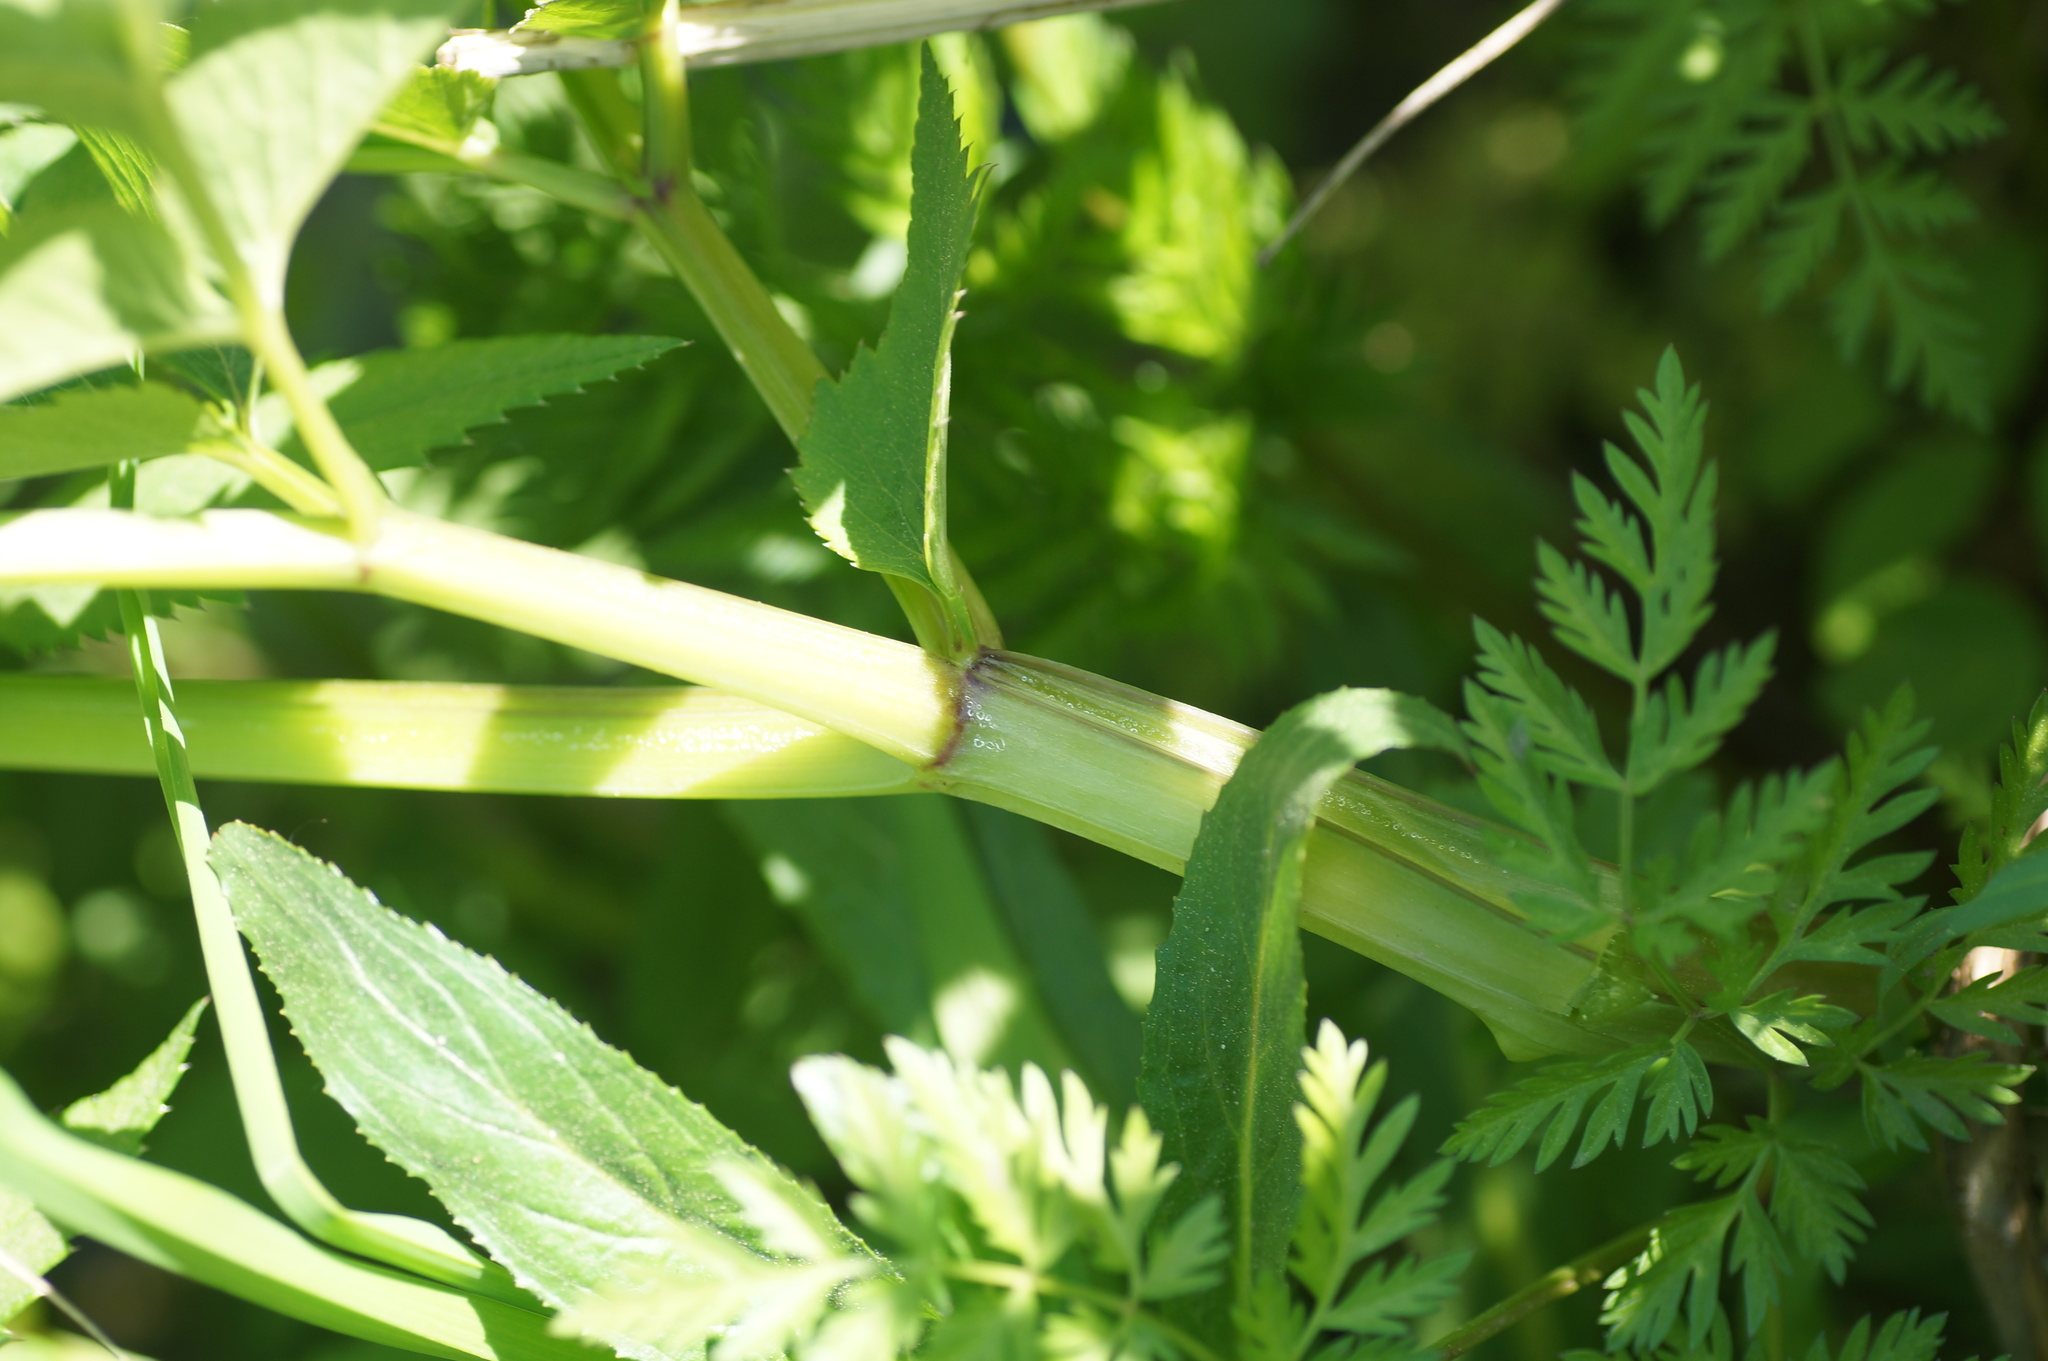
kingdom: Plantae
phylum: Tracheophyta
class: Magnoliopsida
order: Apiales
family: Apiaceae
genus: Angelica
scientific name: Angelica sylvestris
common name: Wild angelica
